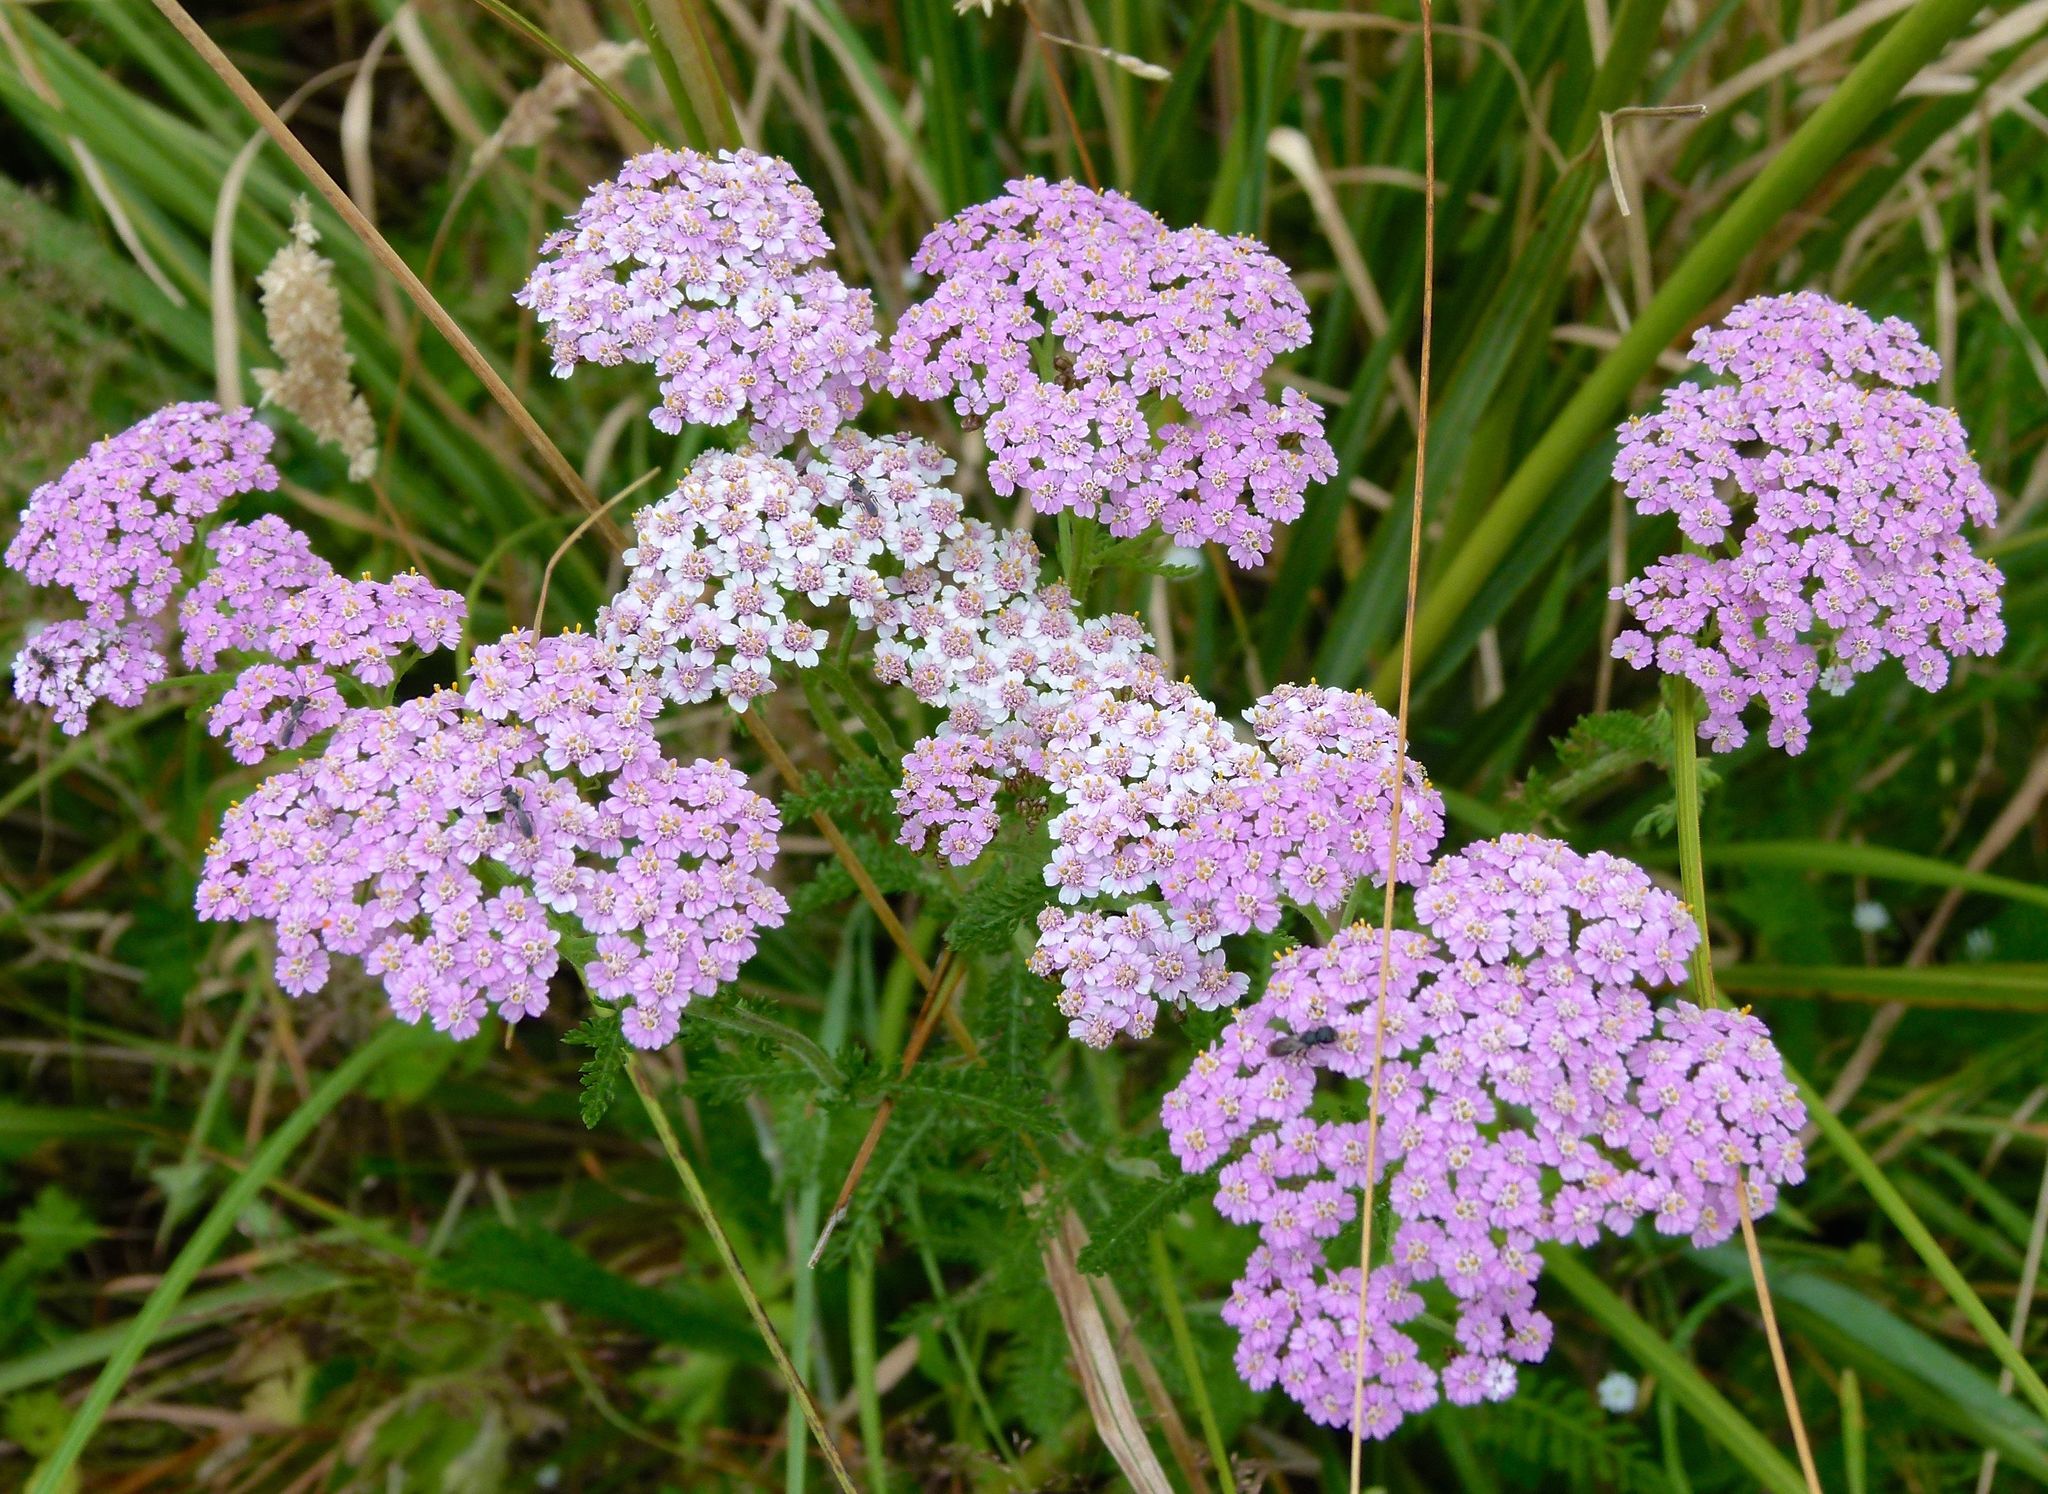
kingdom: Plantae
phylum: Tracheophyta
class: Magnoliopsida
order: Asterales
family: Asteraceae
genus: Achillea
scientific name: Achillea millefolium
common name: Yarrow
